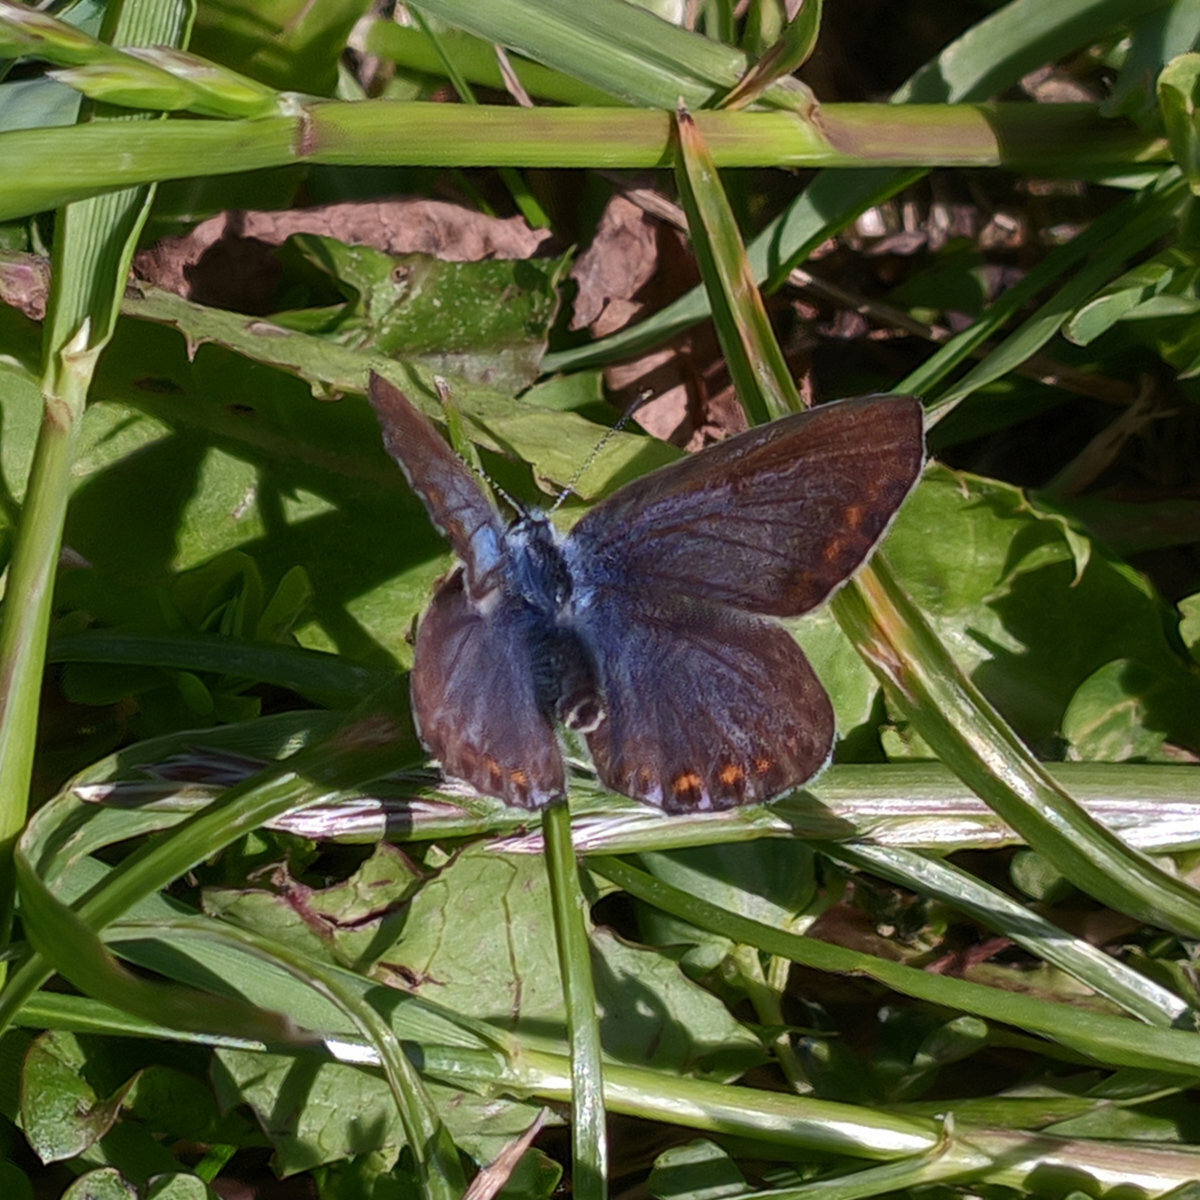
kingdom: Animalia
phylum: Arthropoda
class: Insecta
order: Lepidoptera
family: Lycaenidae
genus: Polyommatus
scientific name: Polyommatus icarus
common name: Common blue
